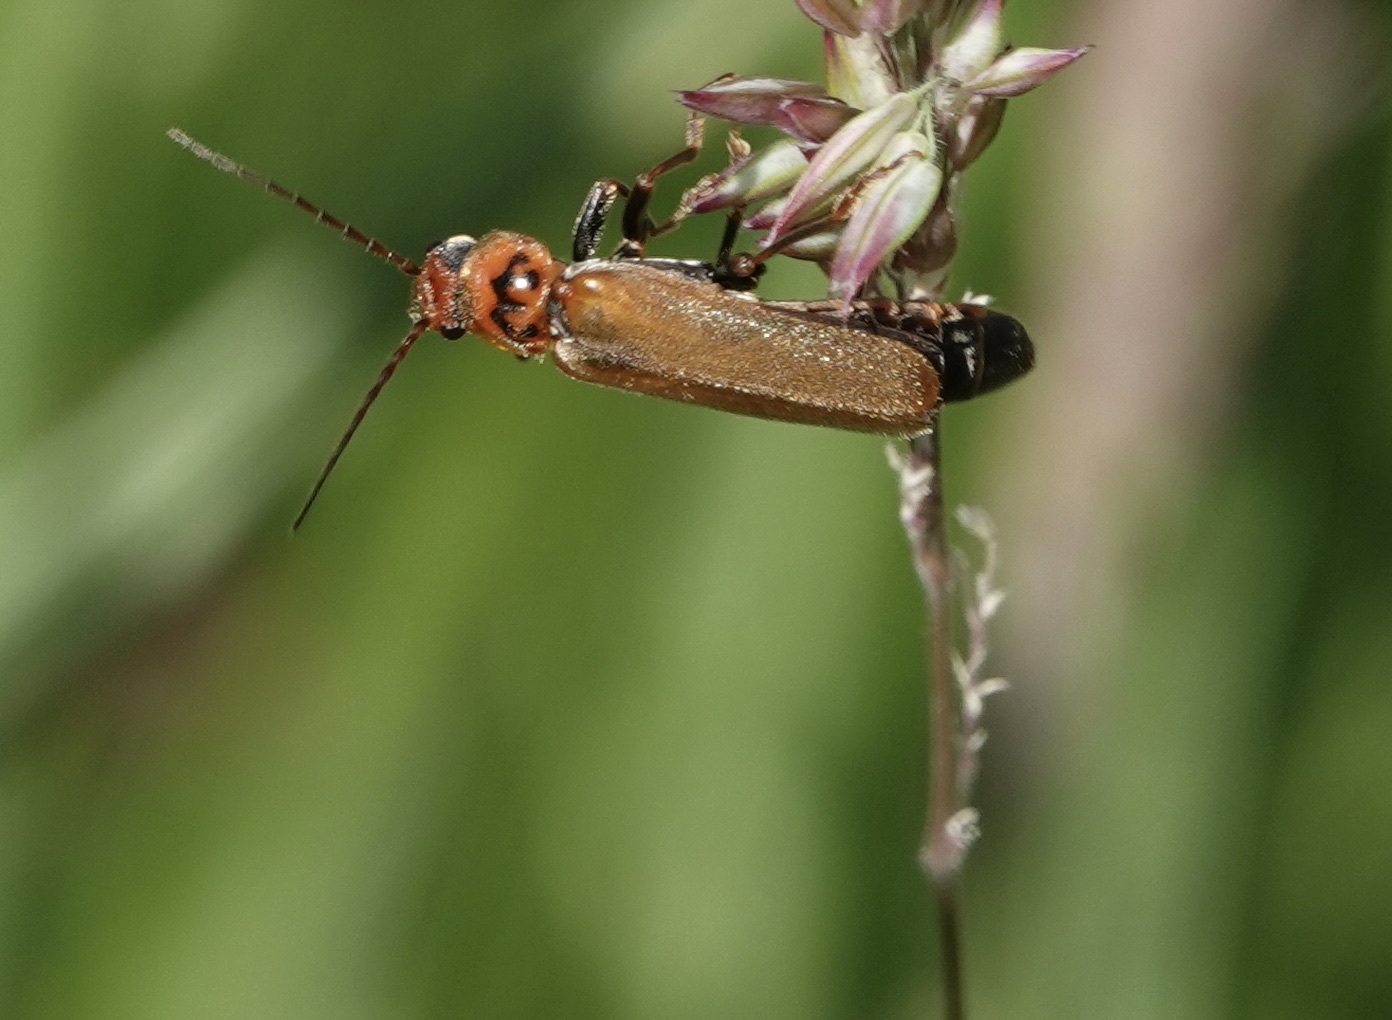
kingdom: Animalia
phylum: Arthropoda
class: Insecta
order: Coleoptera
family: Cantharidae
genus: Cantharis
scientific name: Cantharis figurata
